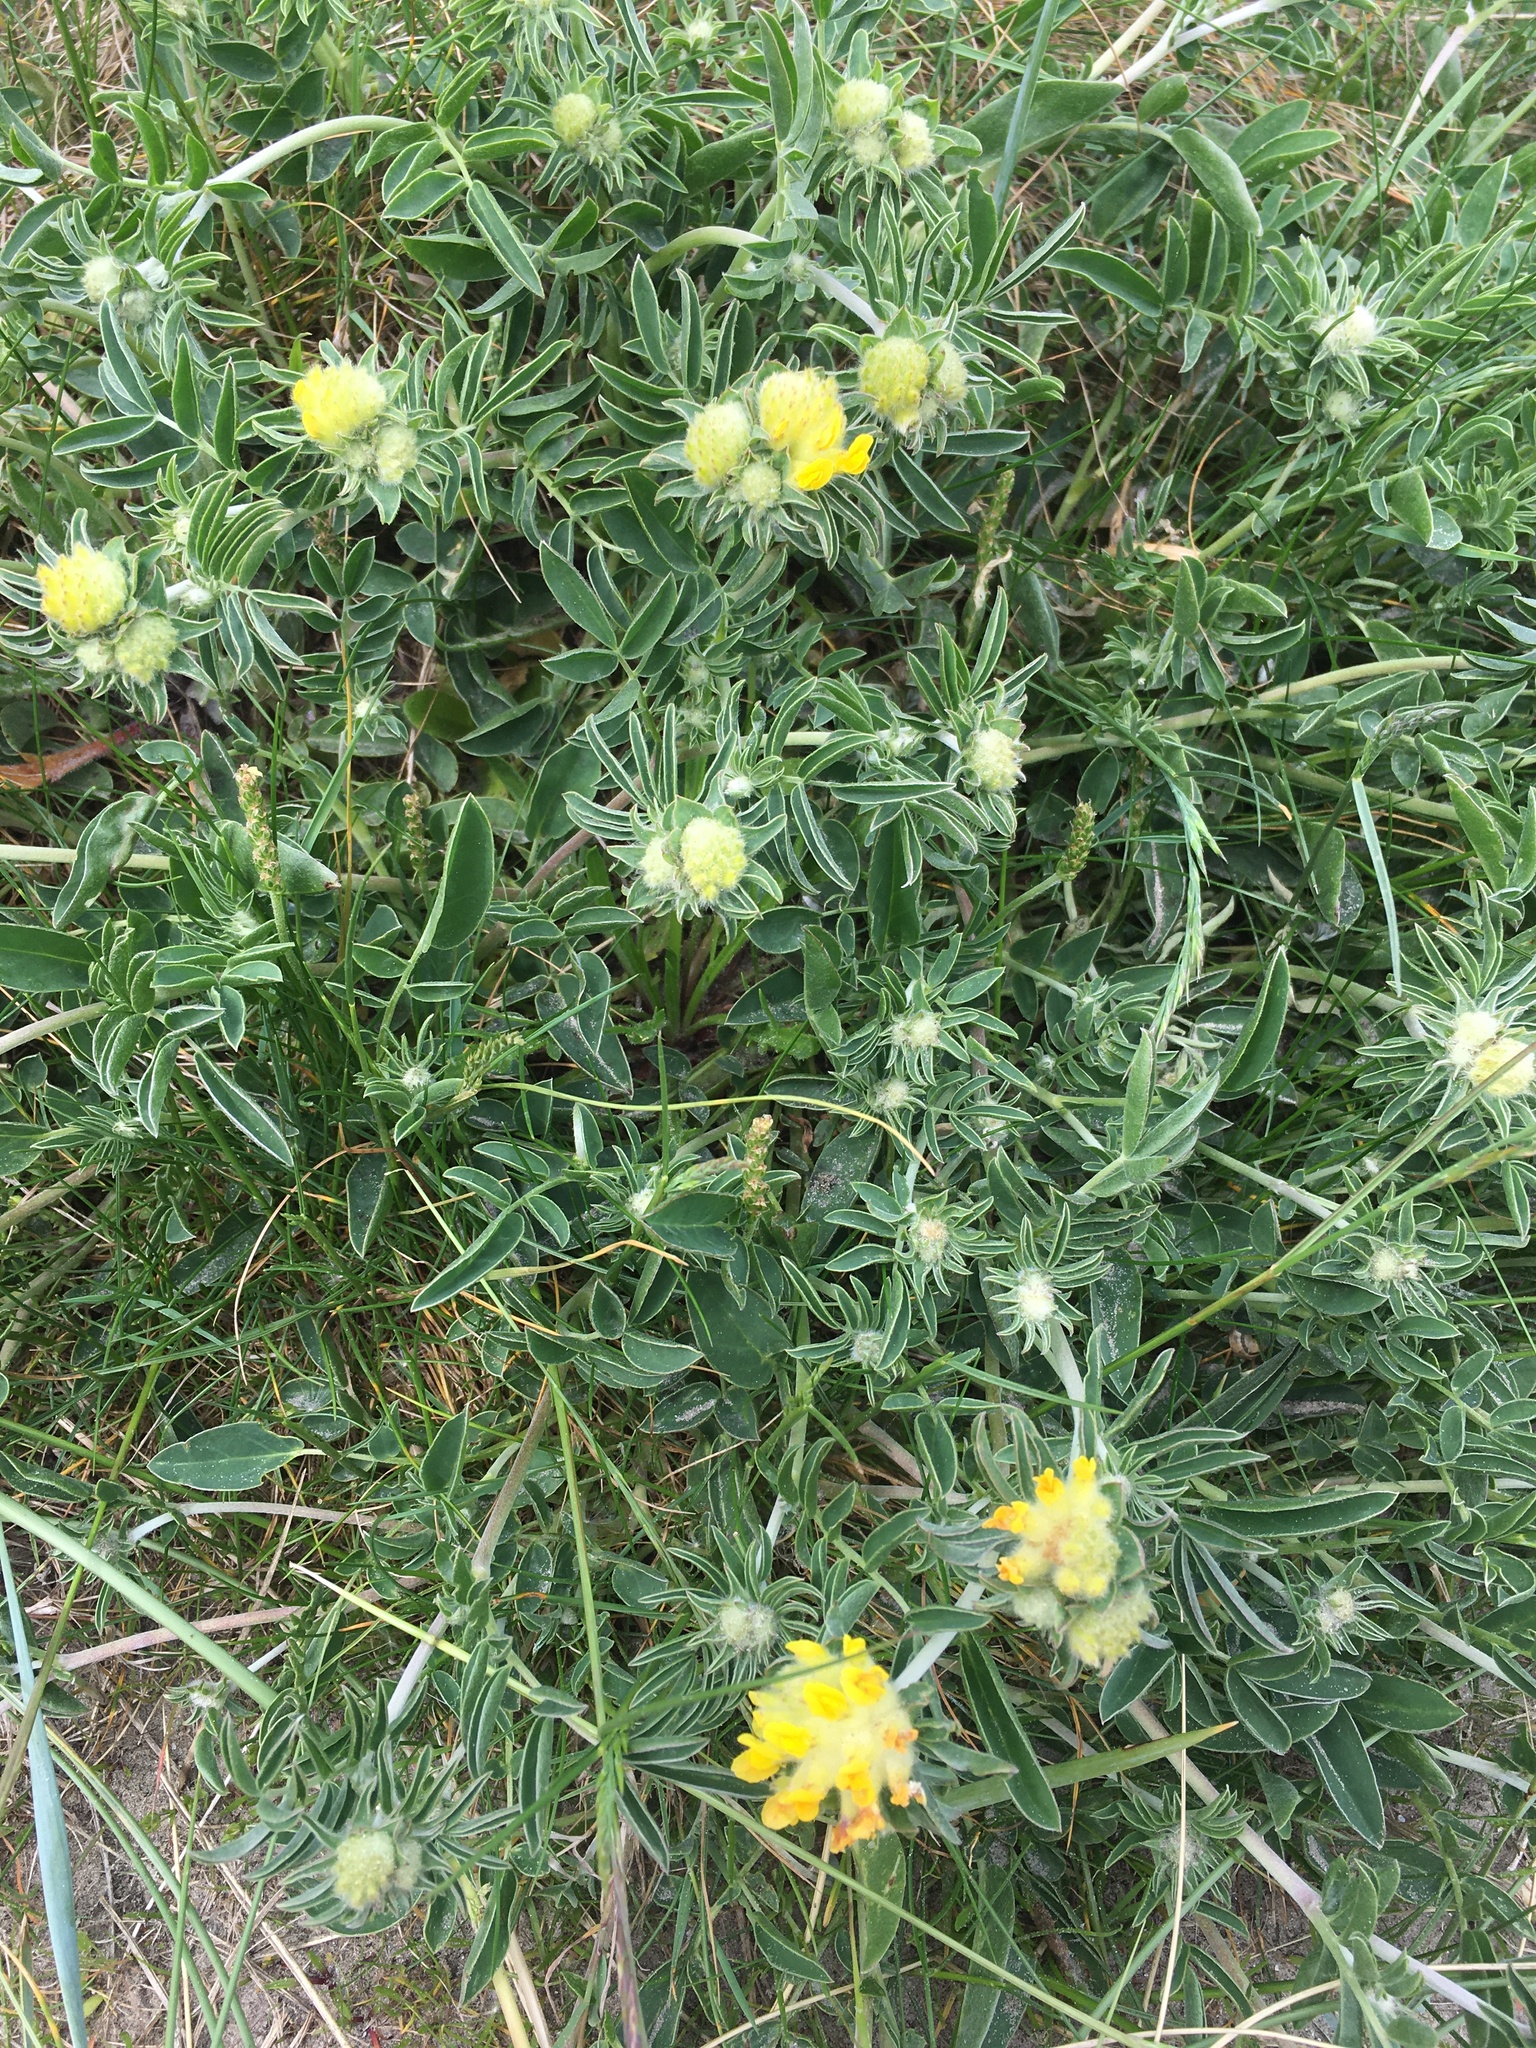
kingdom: Plantae
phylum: Tracheophyta
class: Magnoliopsida
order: Fabales
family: Fabaceae
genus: Anthyllis
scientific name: Anthyllis vulneraria
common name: Kidney vetch
